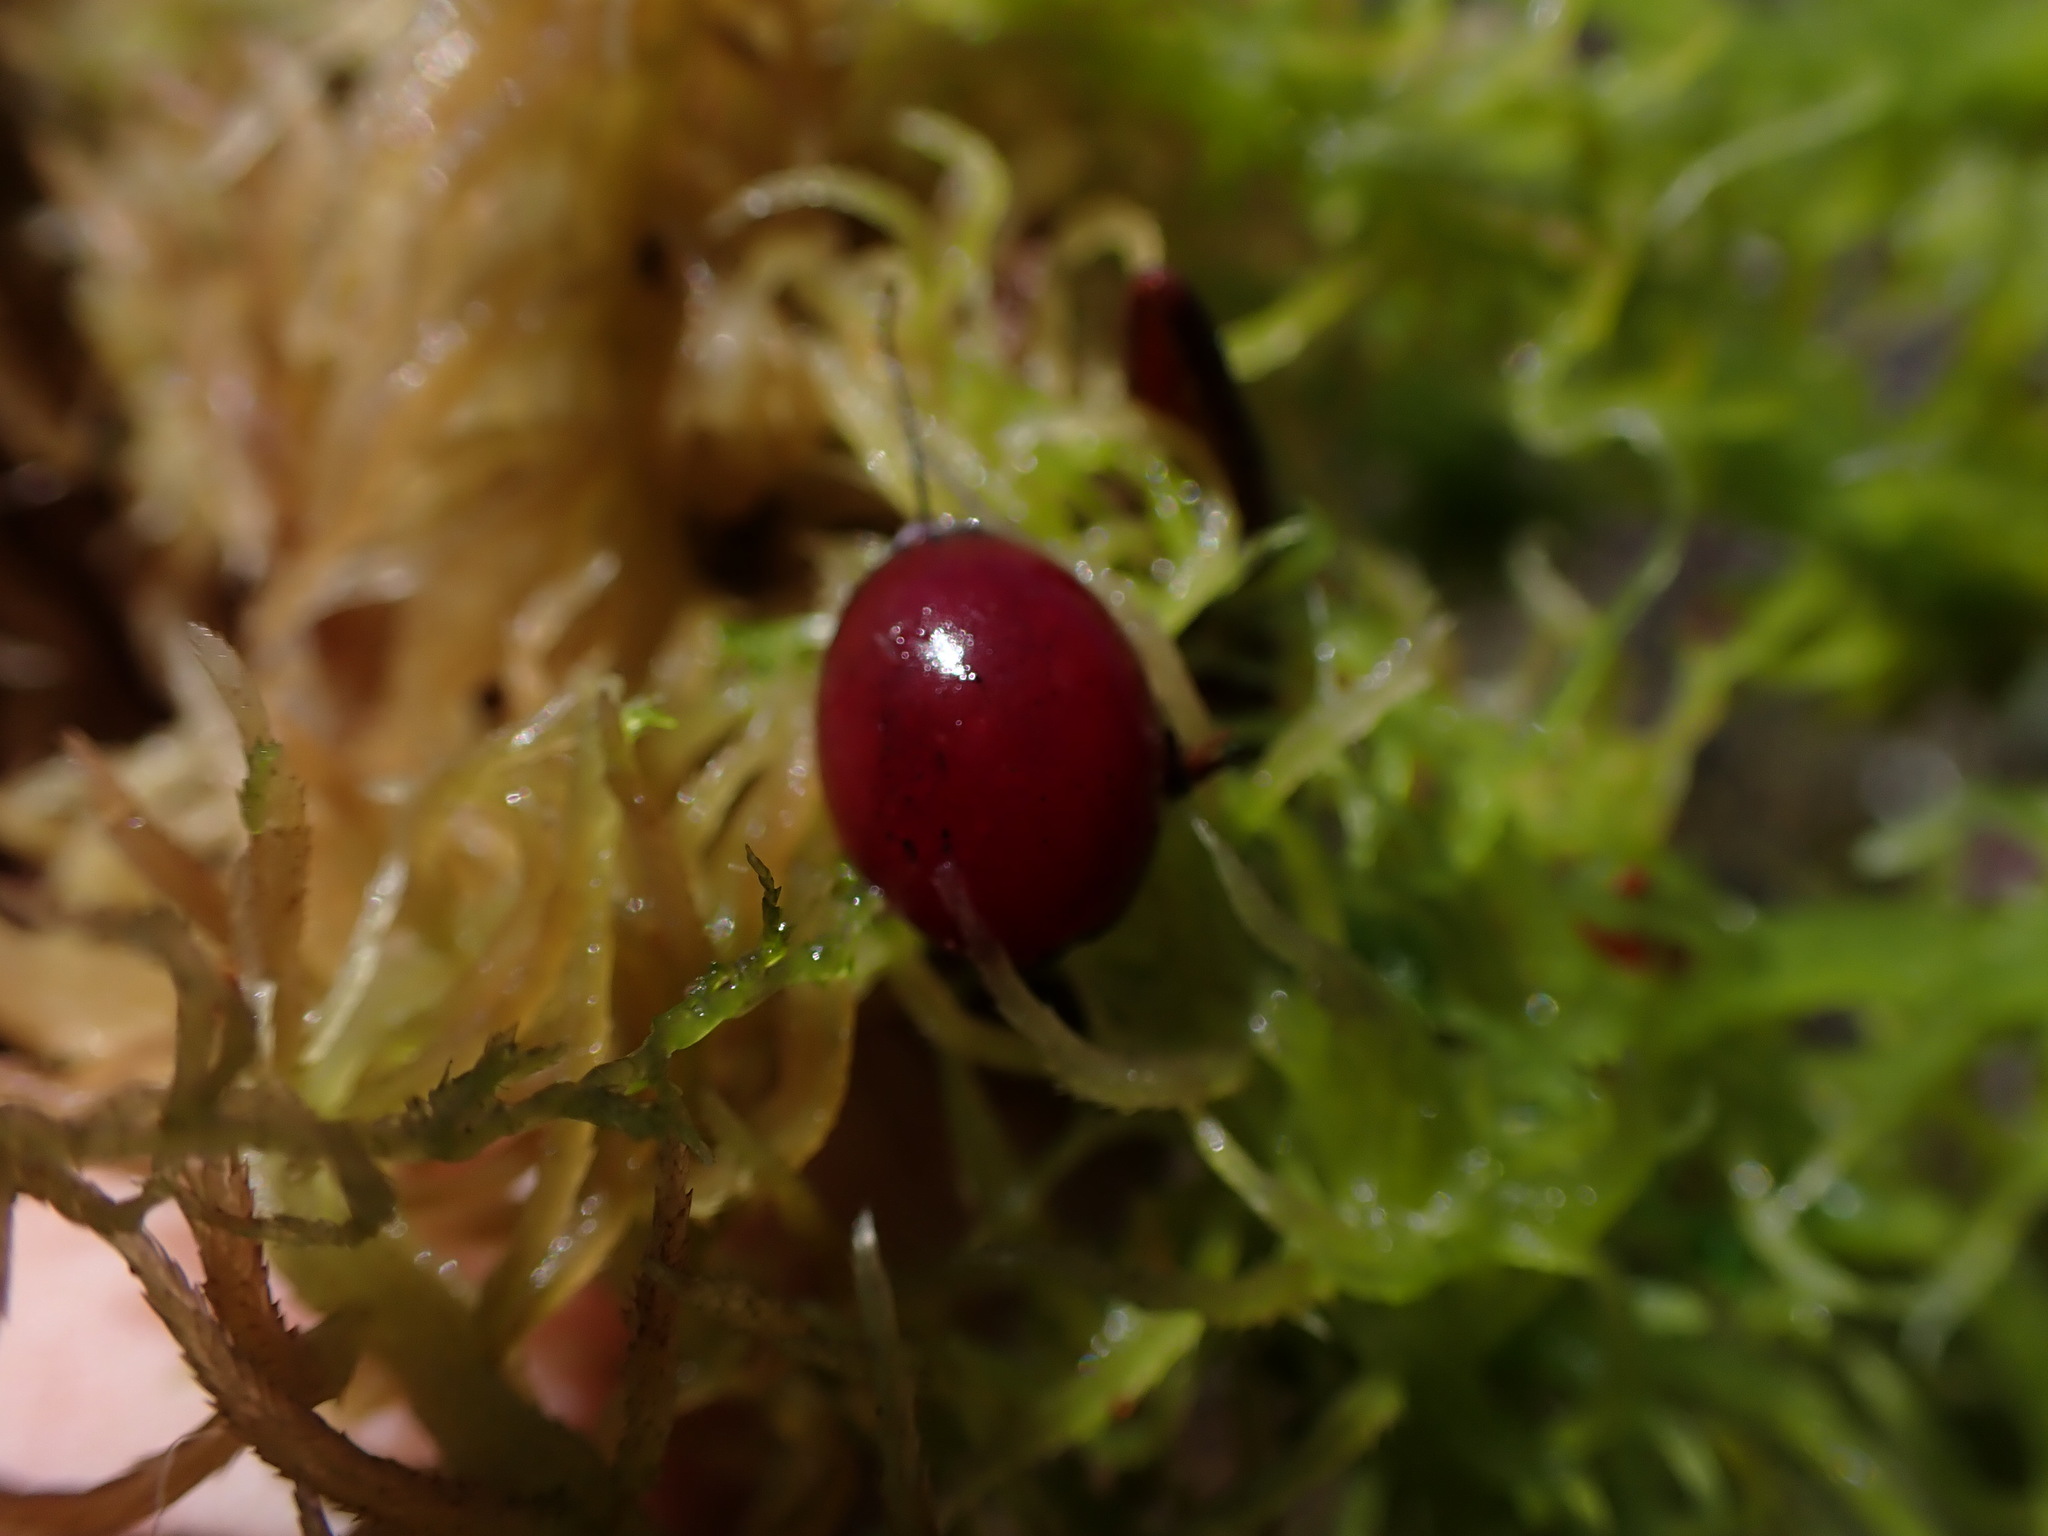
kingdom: Plantae
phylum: Tracheophyta
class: Magnoliopsida
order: Ericales
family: Ericaceae
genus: Vaccinium
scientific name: Vaccinium oxycoccos
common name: Cranberry
